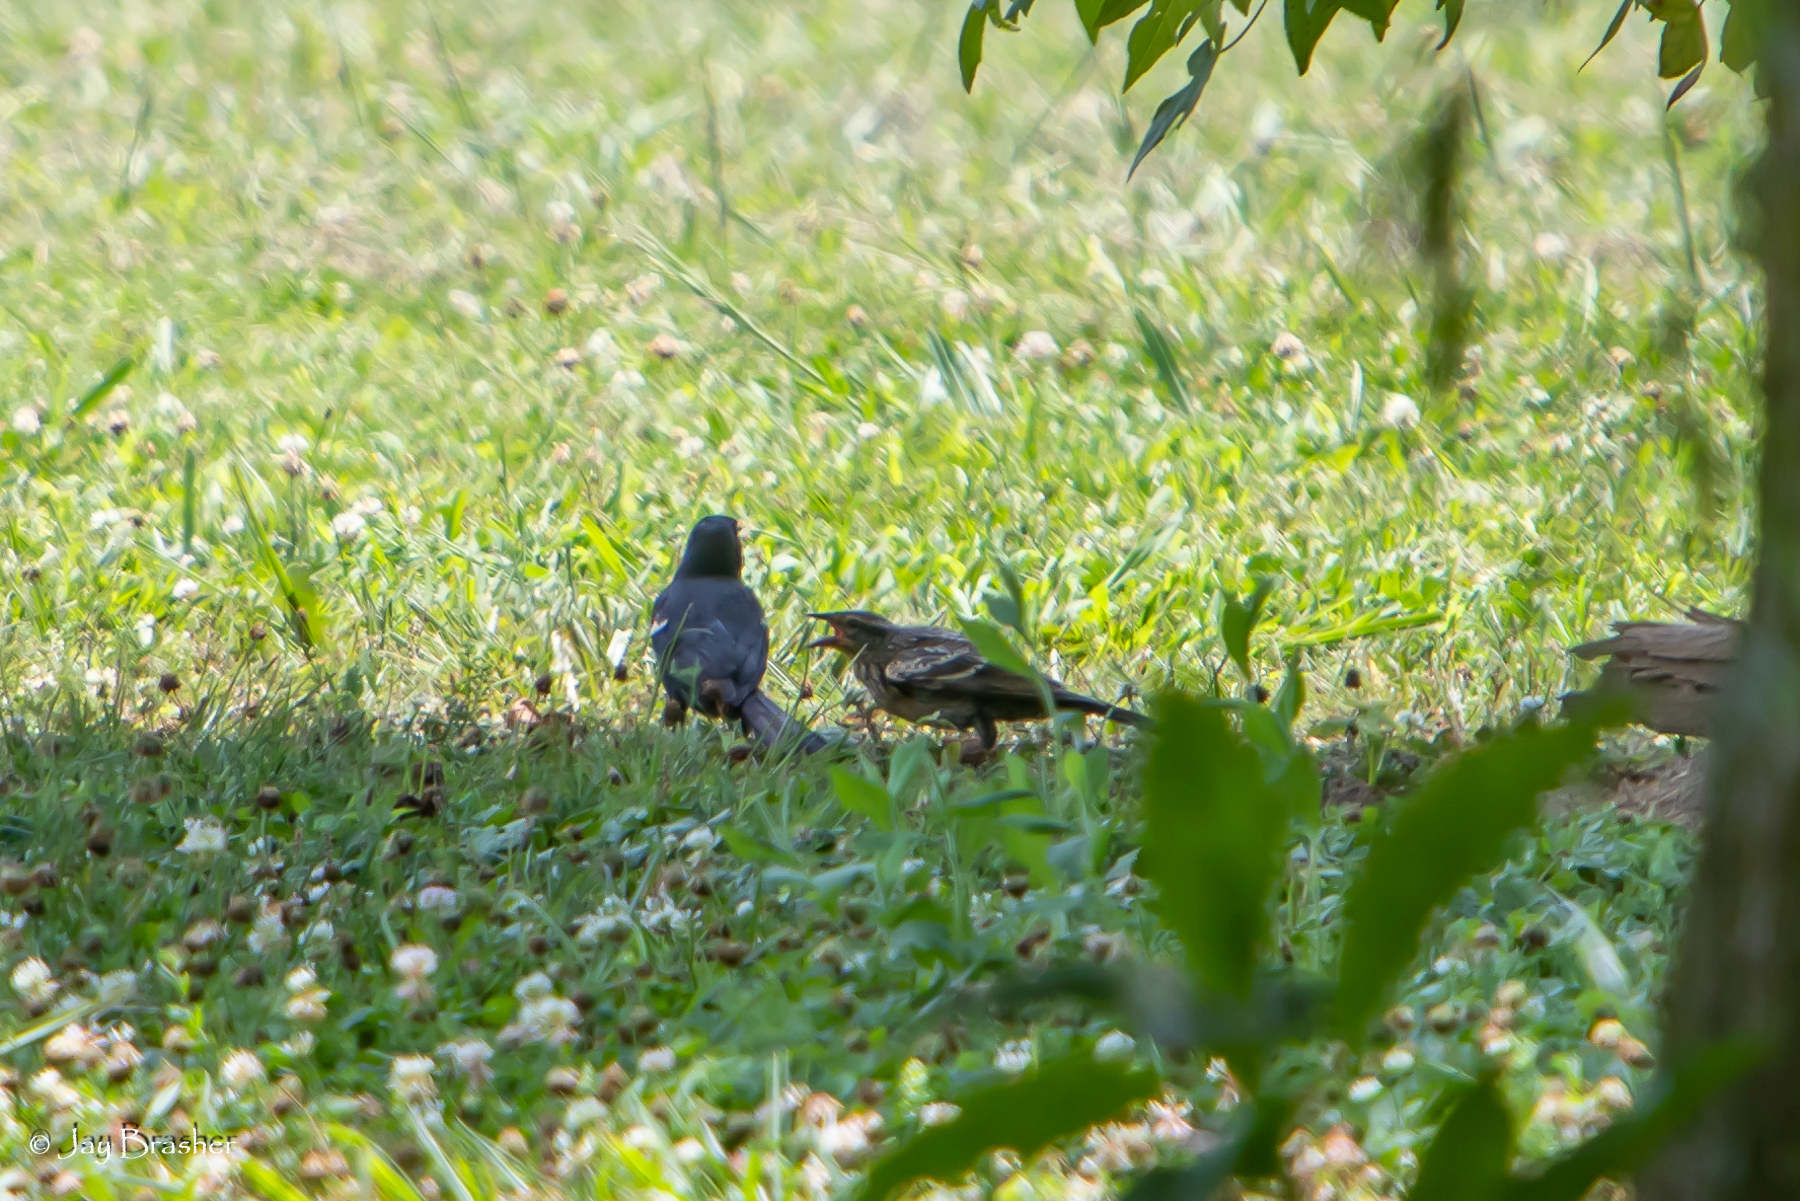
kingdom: Animalia
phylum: Chordata
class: Aves
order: Passeriformes
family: Icteridae
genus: Agelaius
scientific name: Agelaius phoeniceus
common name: Red-winged blackbird
